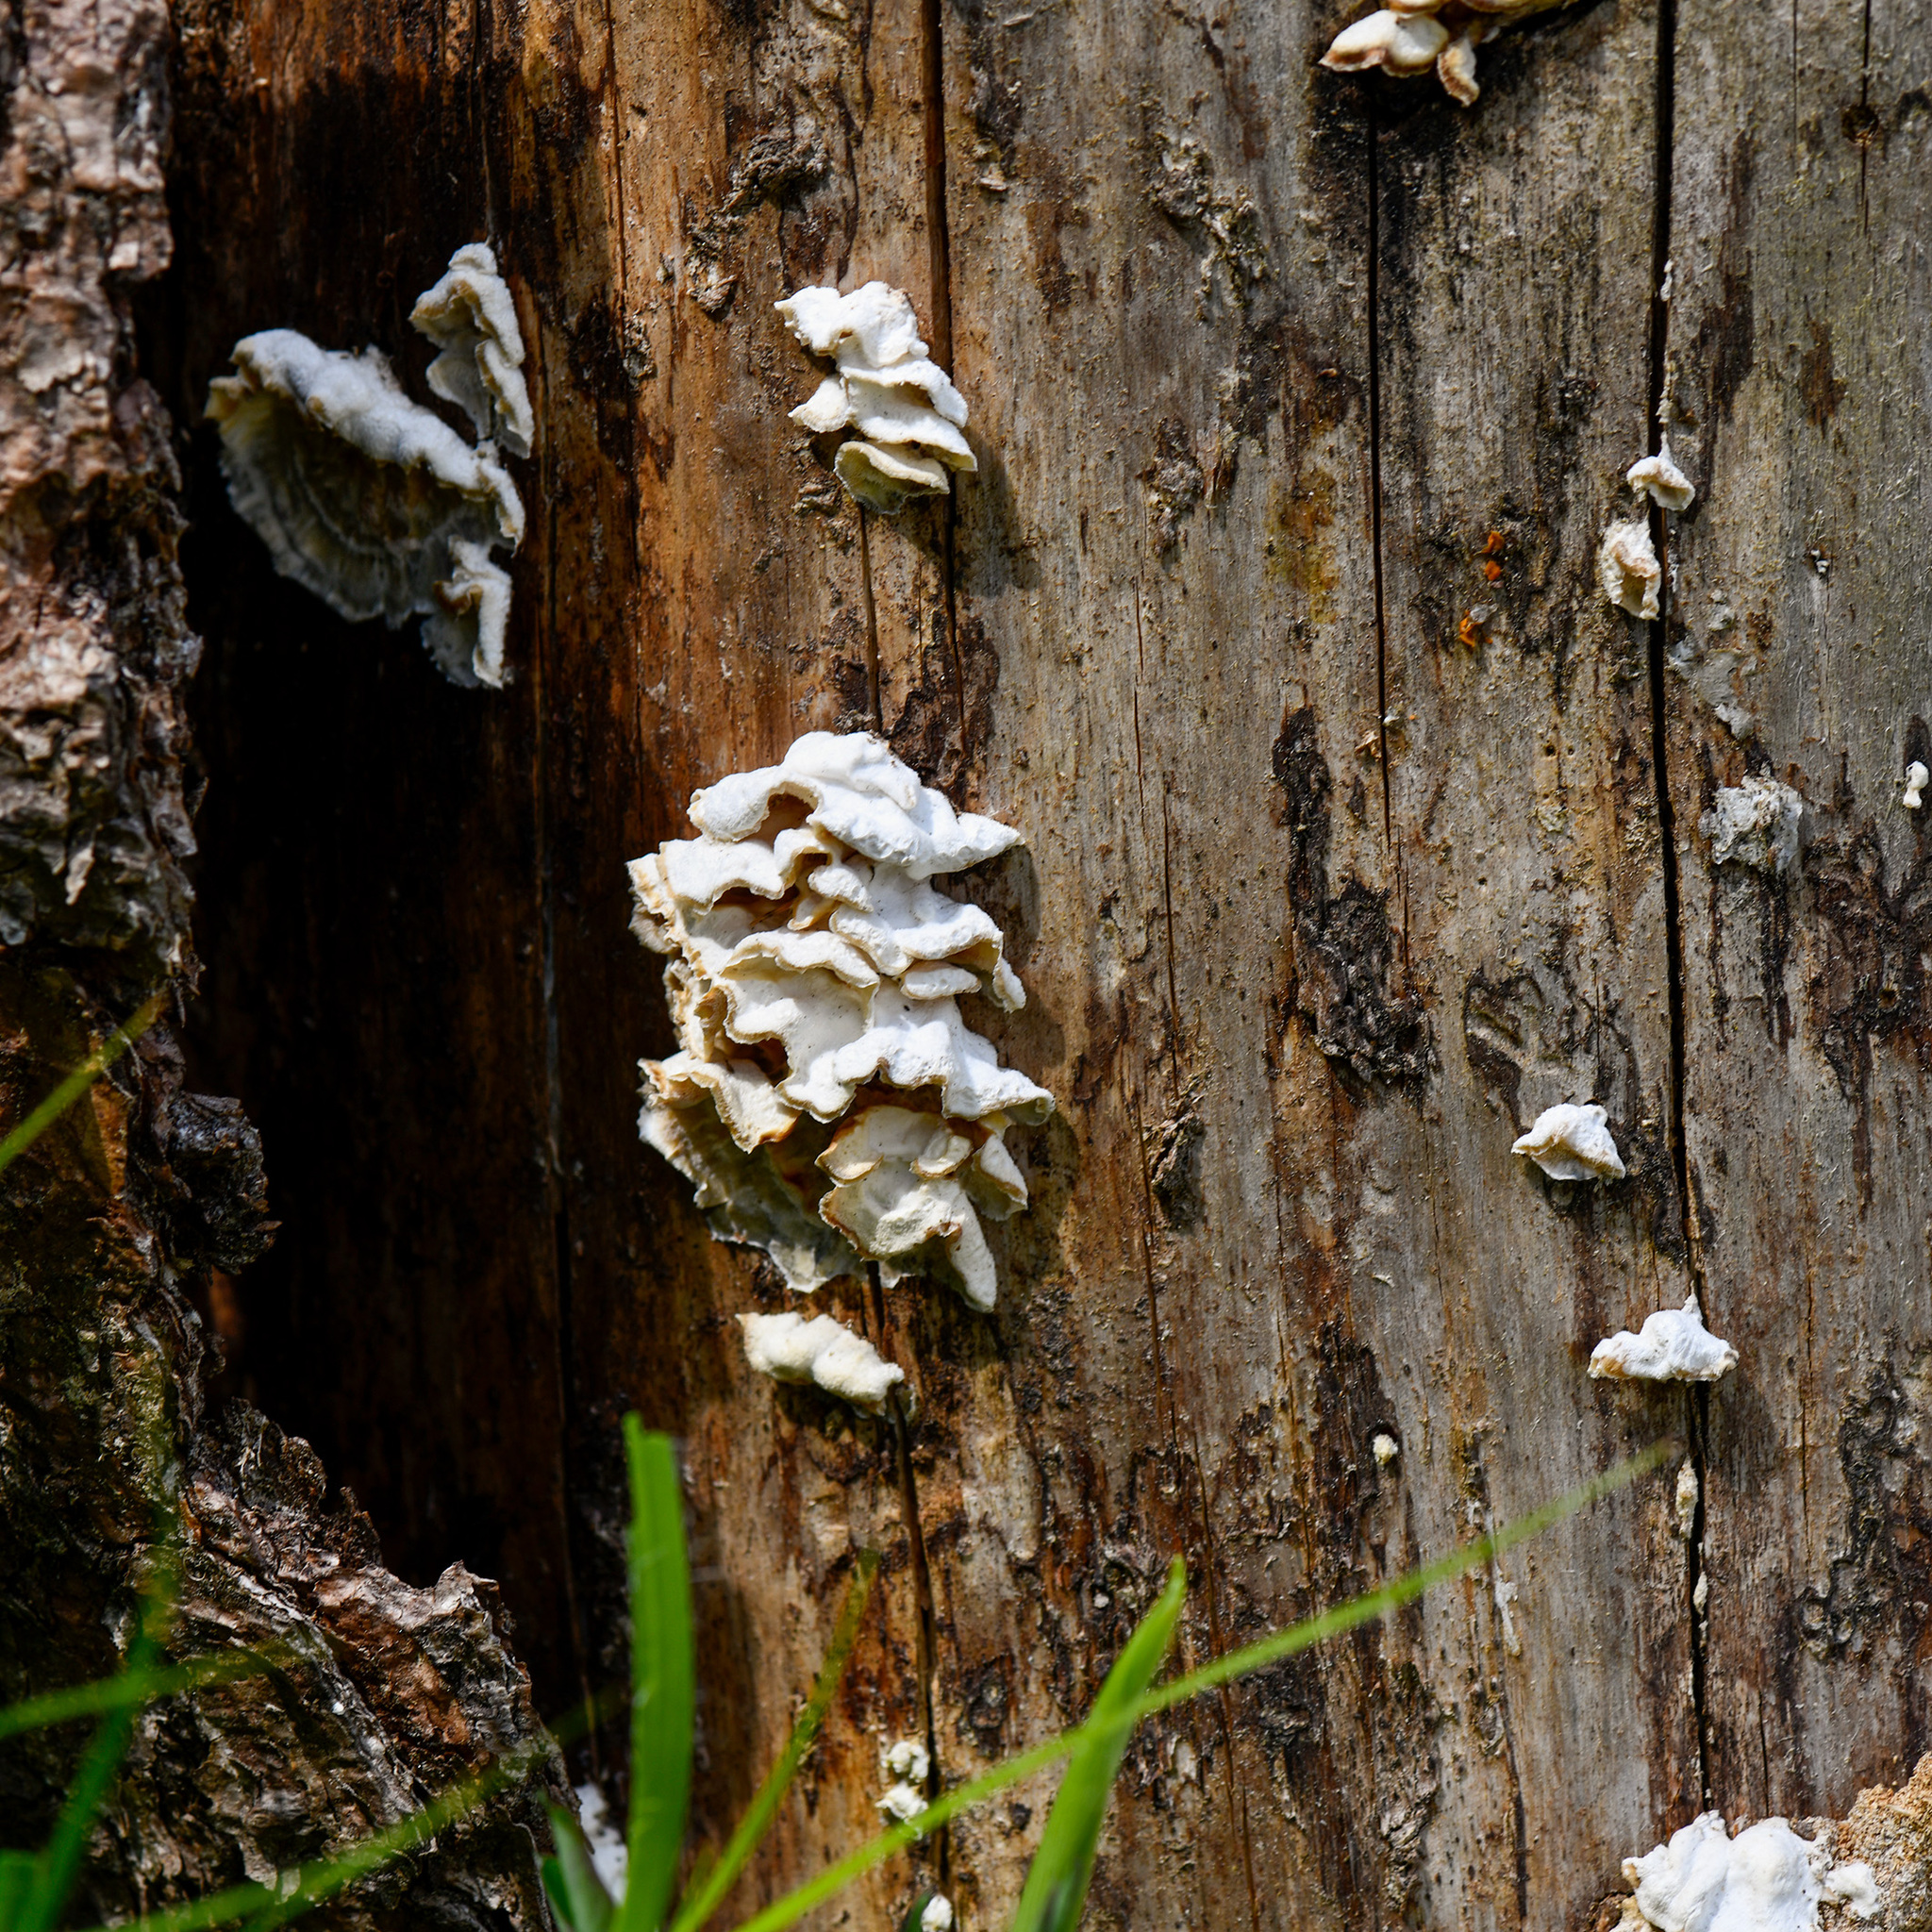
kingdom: Fungi
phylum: Basidiomycota
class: Agaricomycetes
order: Polyporales
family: Polyporaceae
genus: Trametes
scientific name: Trametes pubescens
